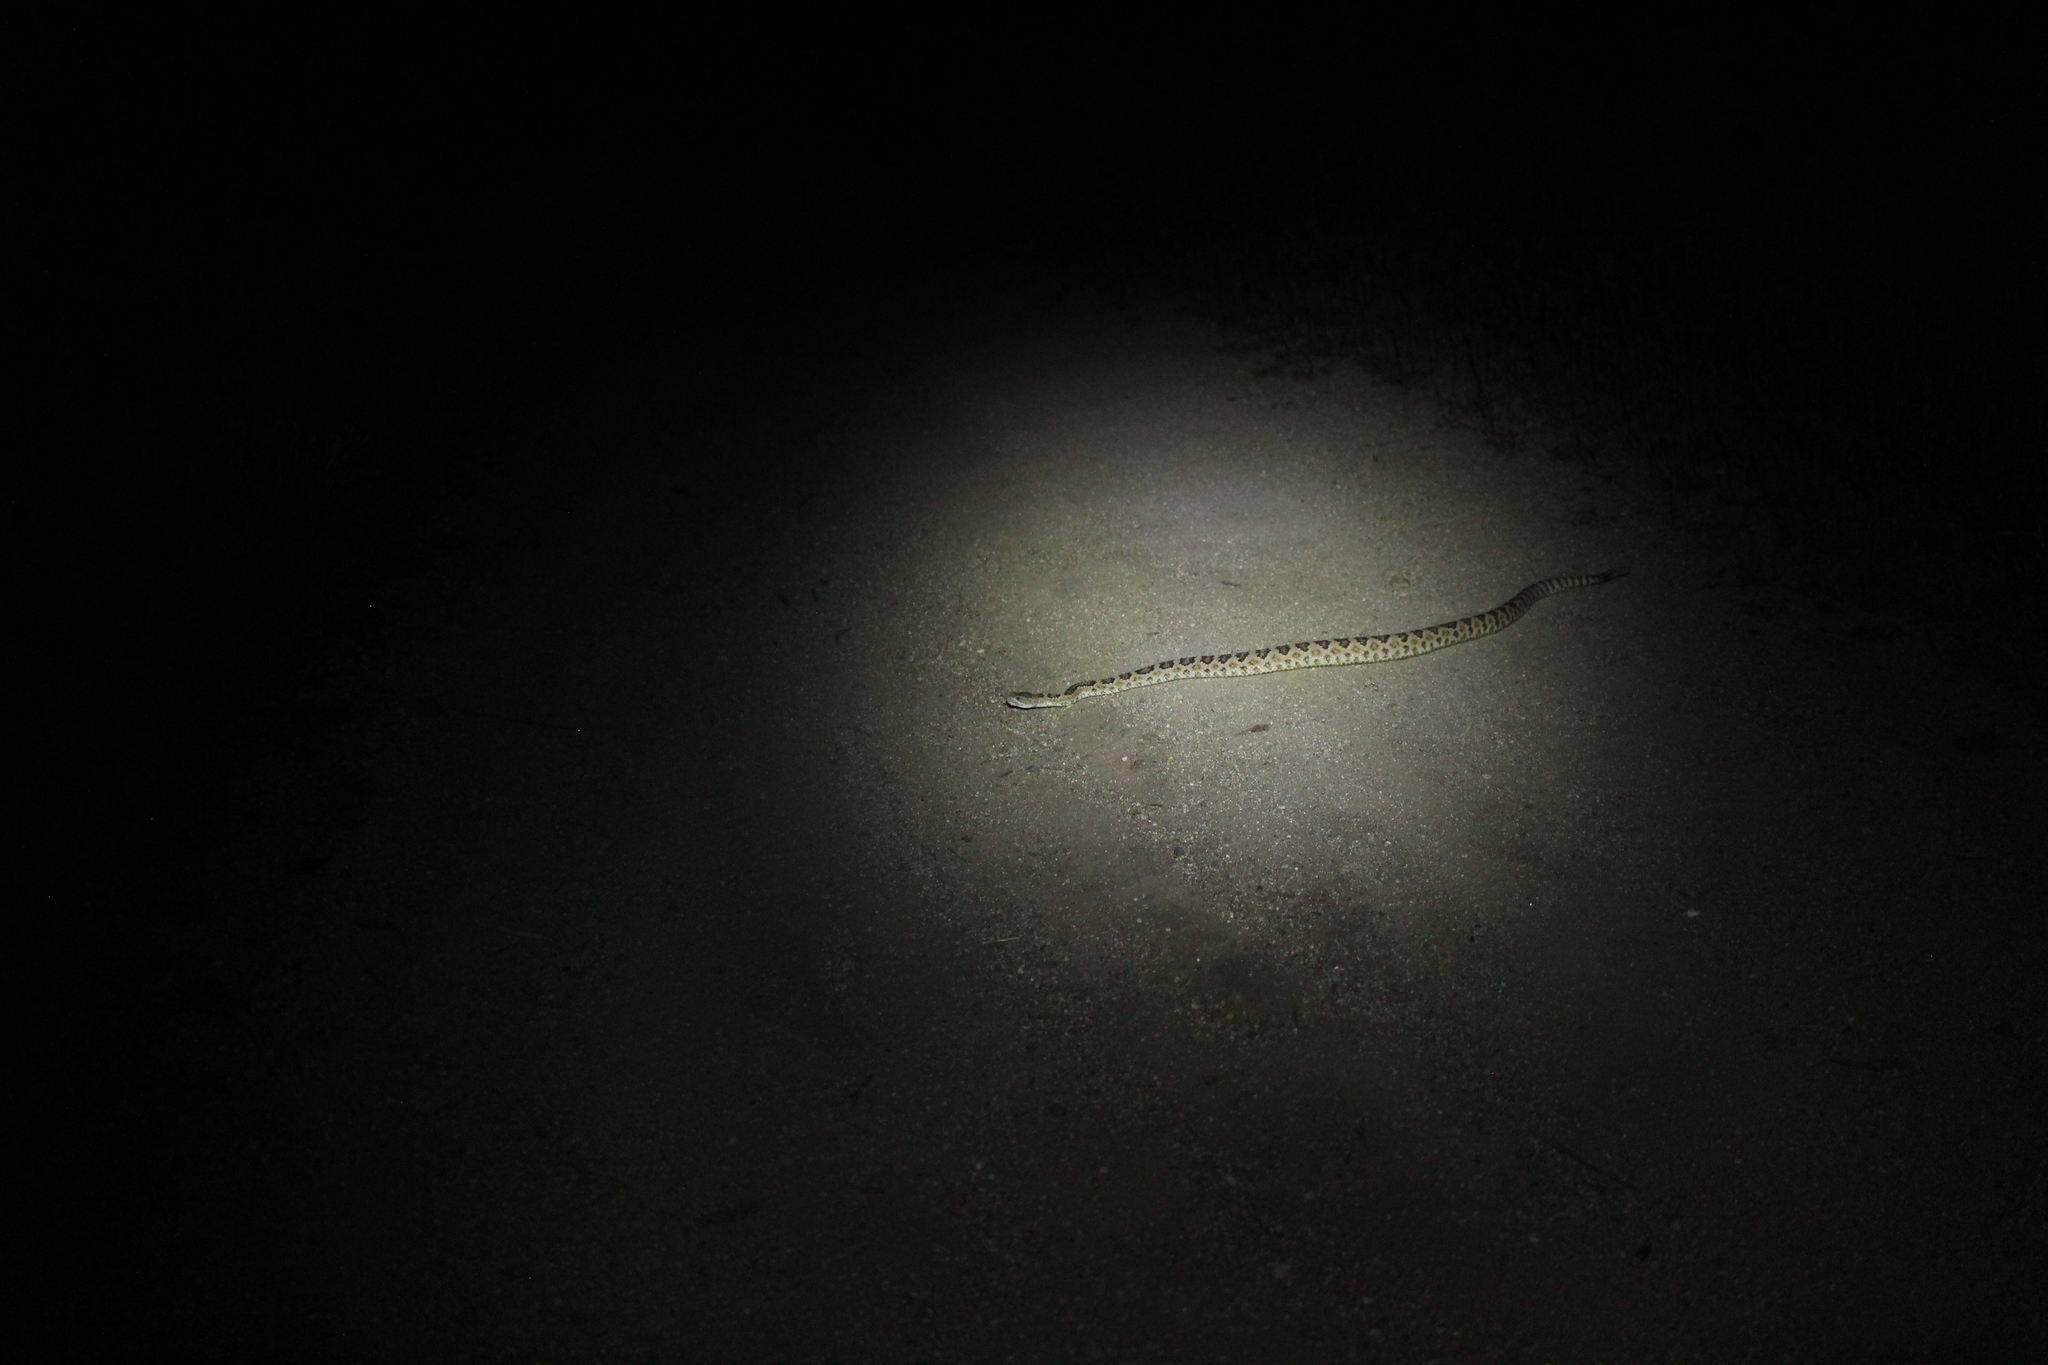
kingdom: Animalia
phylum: Chordata
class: Squamata
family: Viperidae
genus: Crotalus
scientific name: Crotalus oreganus
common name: Abyssus
